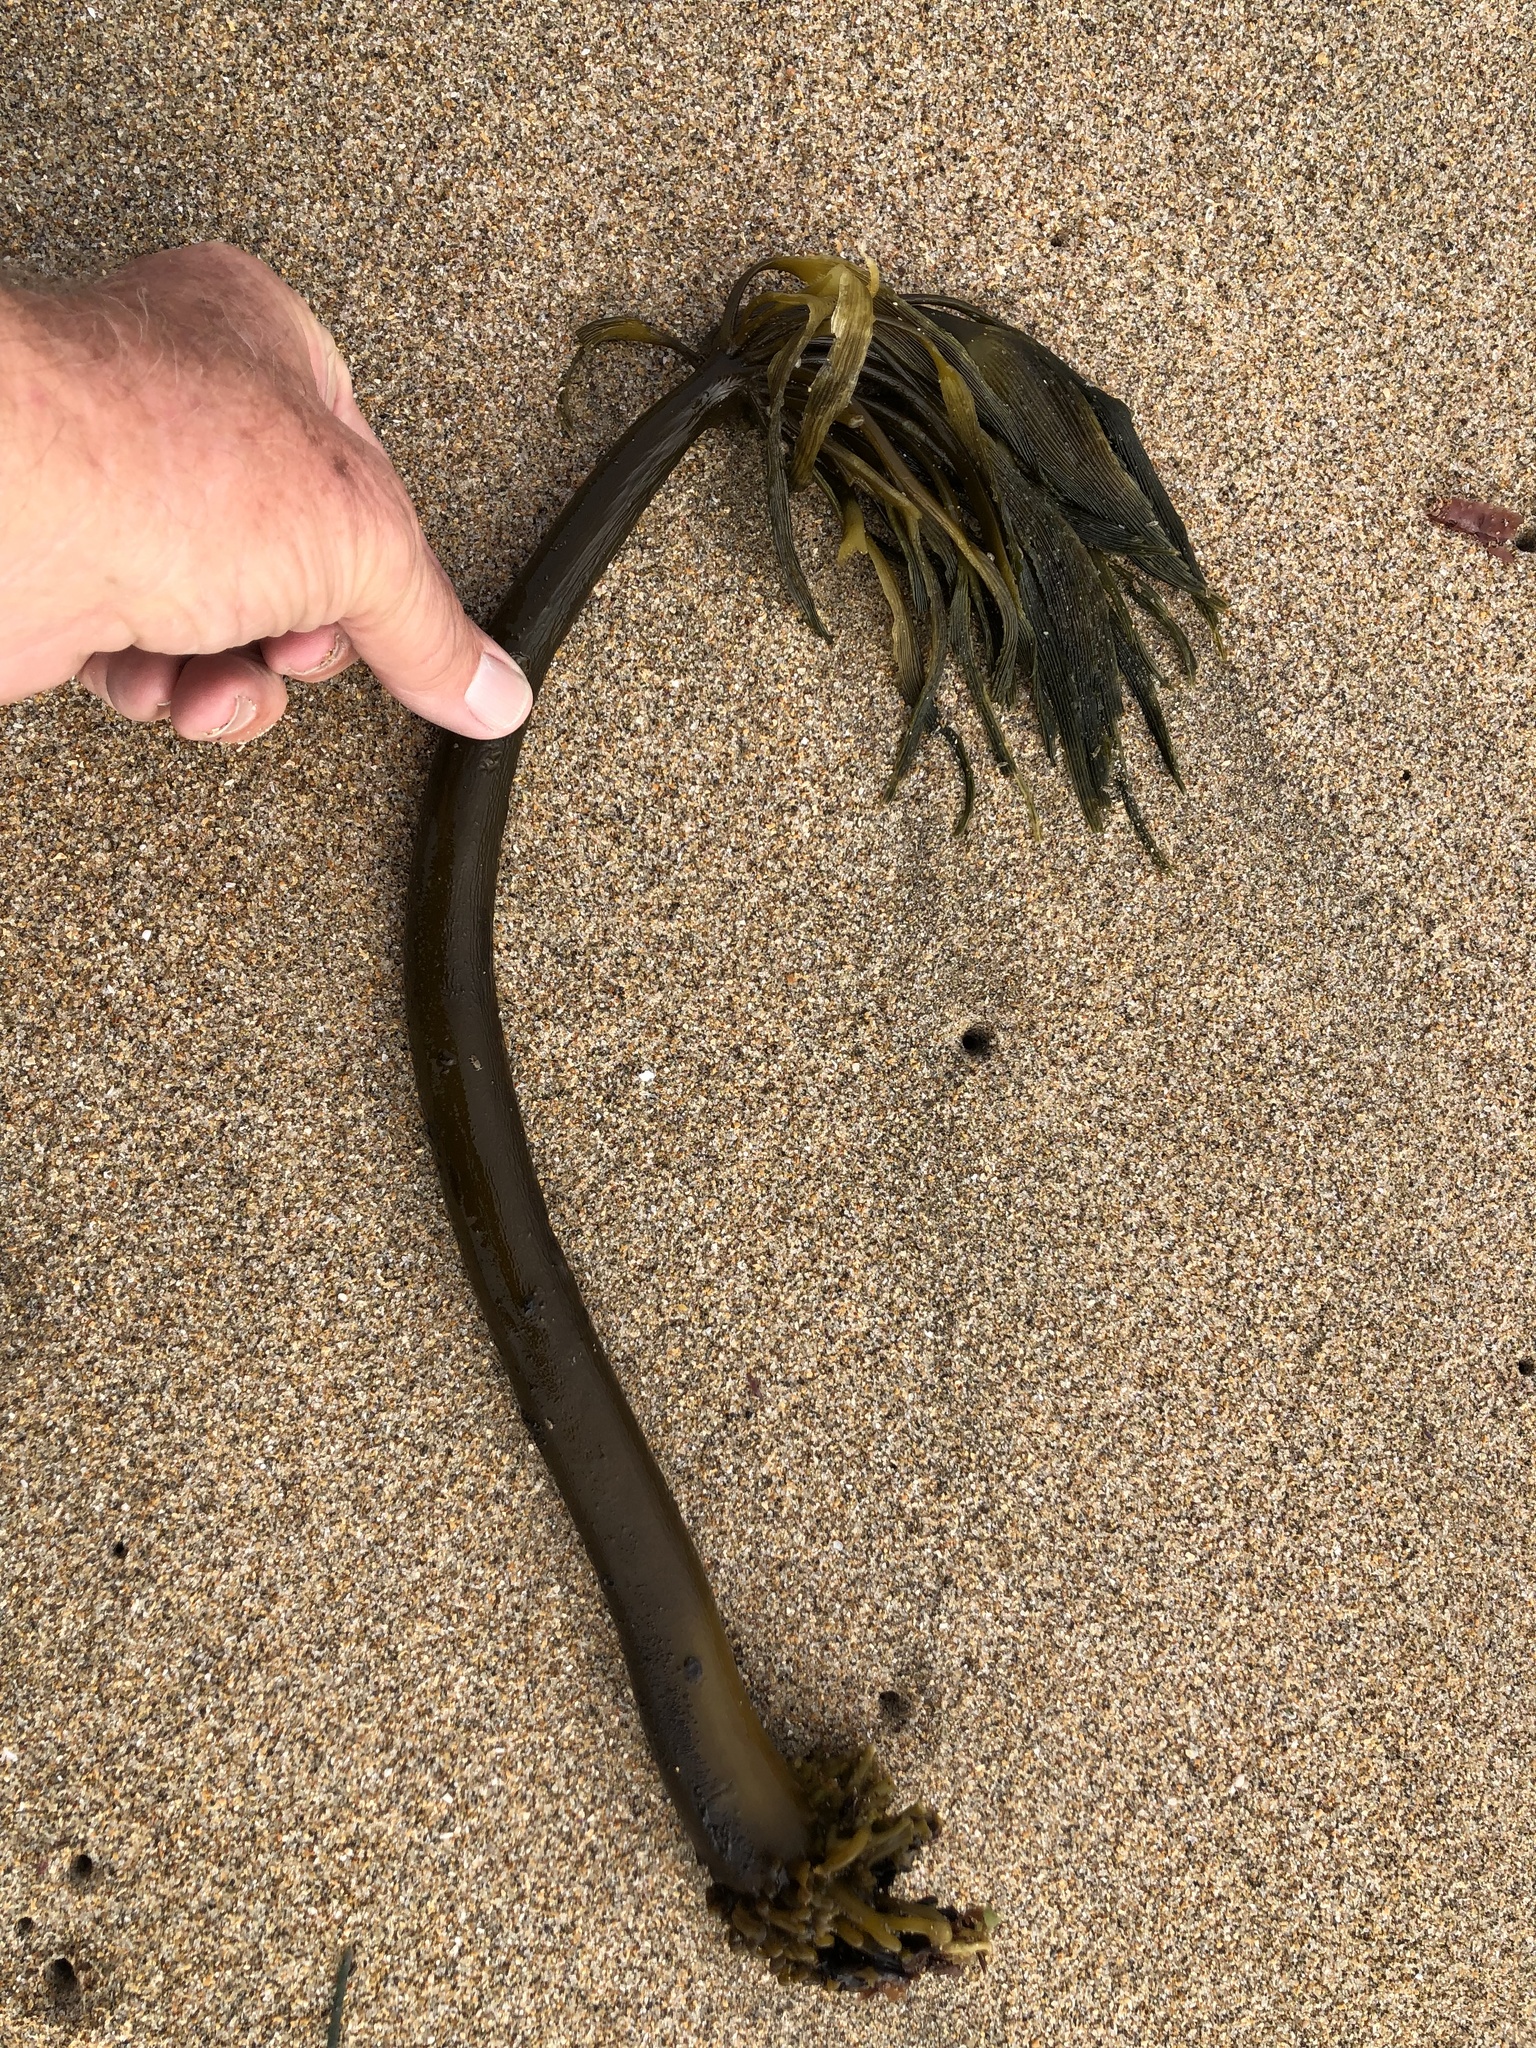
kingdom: Chromista
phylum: Ochrophyta
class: Phaeophyceae
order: Laminariales
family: Laminariaceae
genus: Postelsia
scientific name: Postelsia palmiformis
